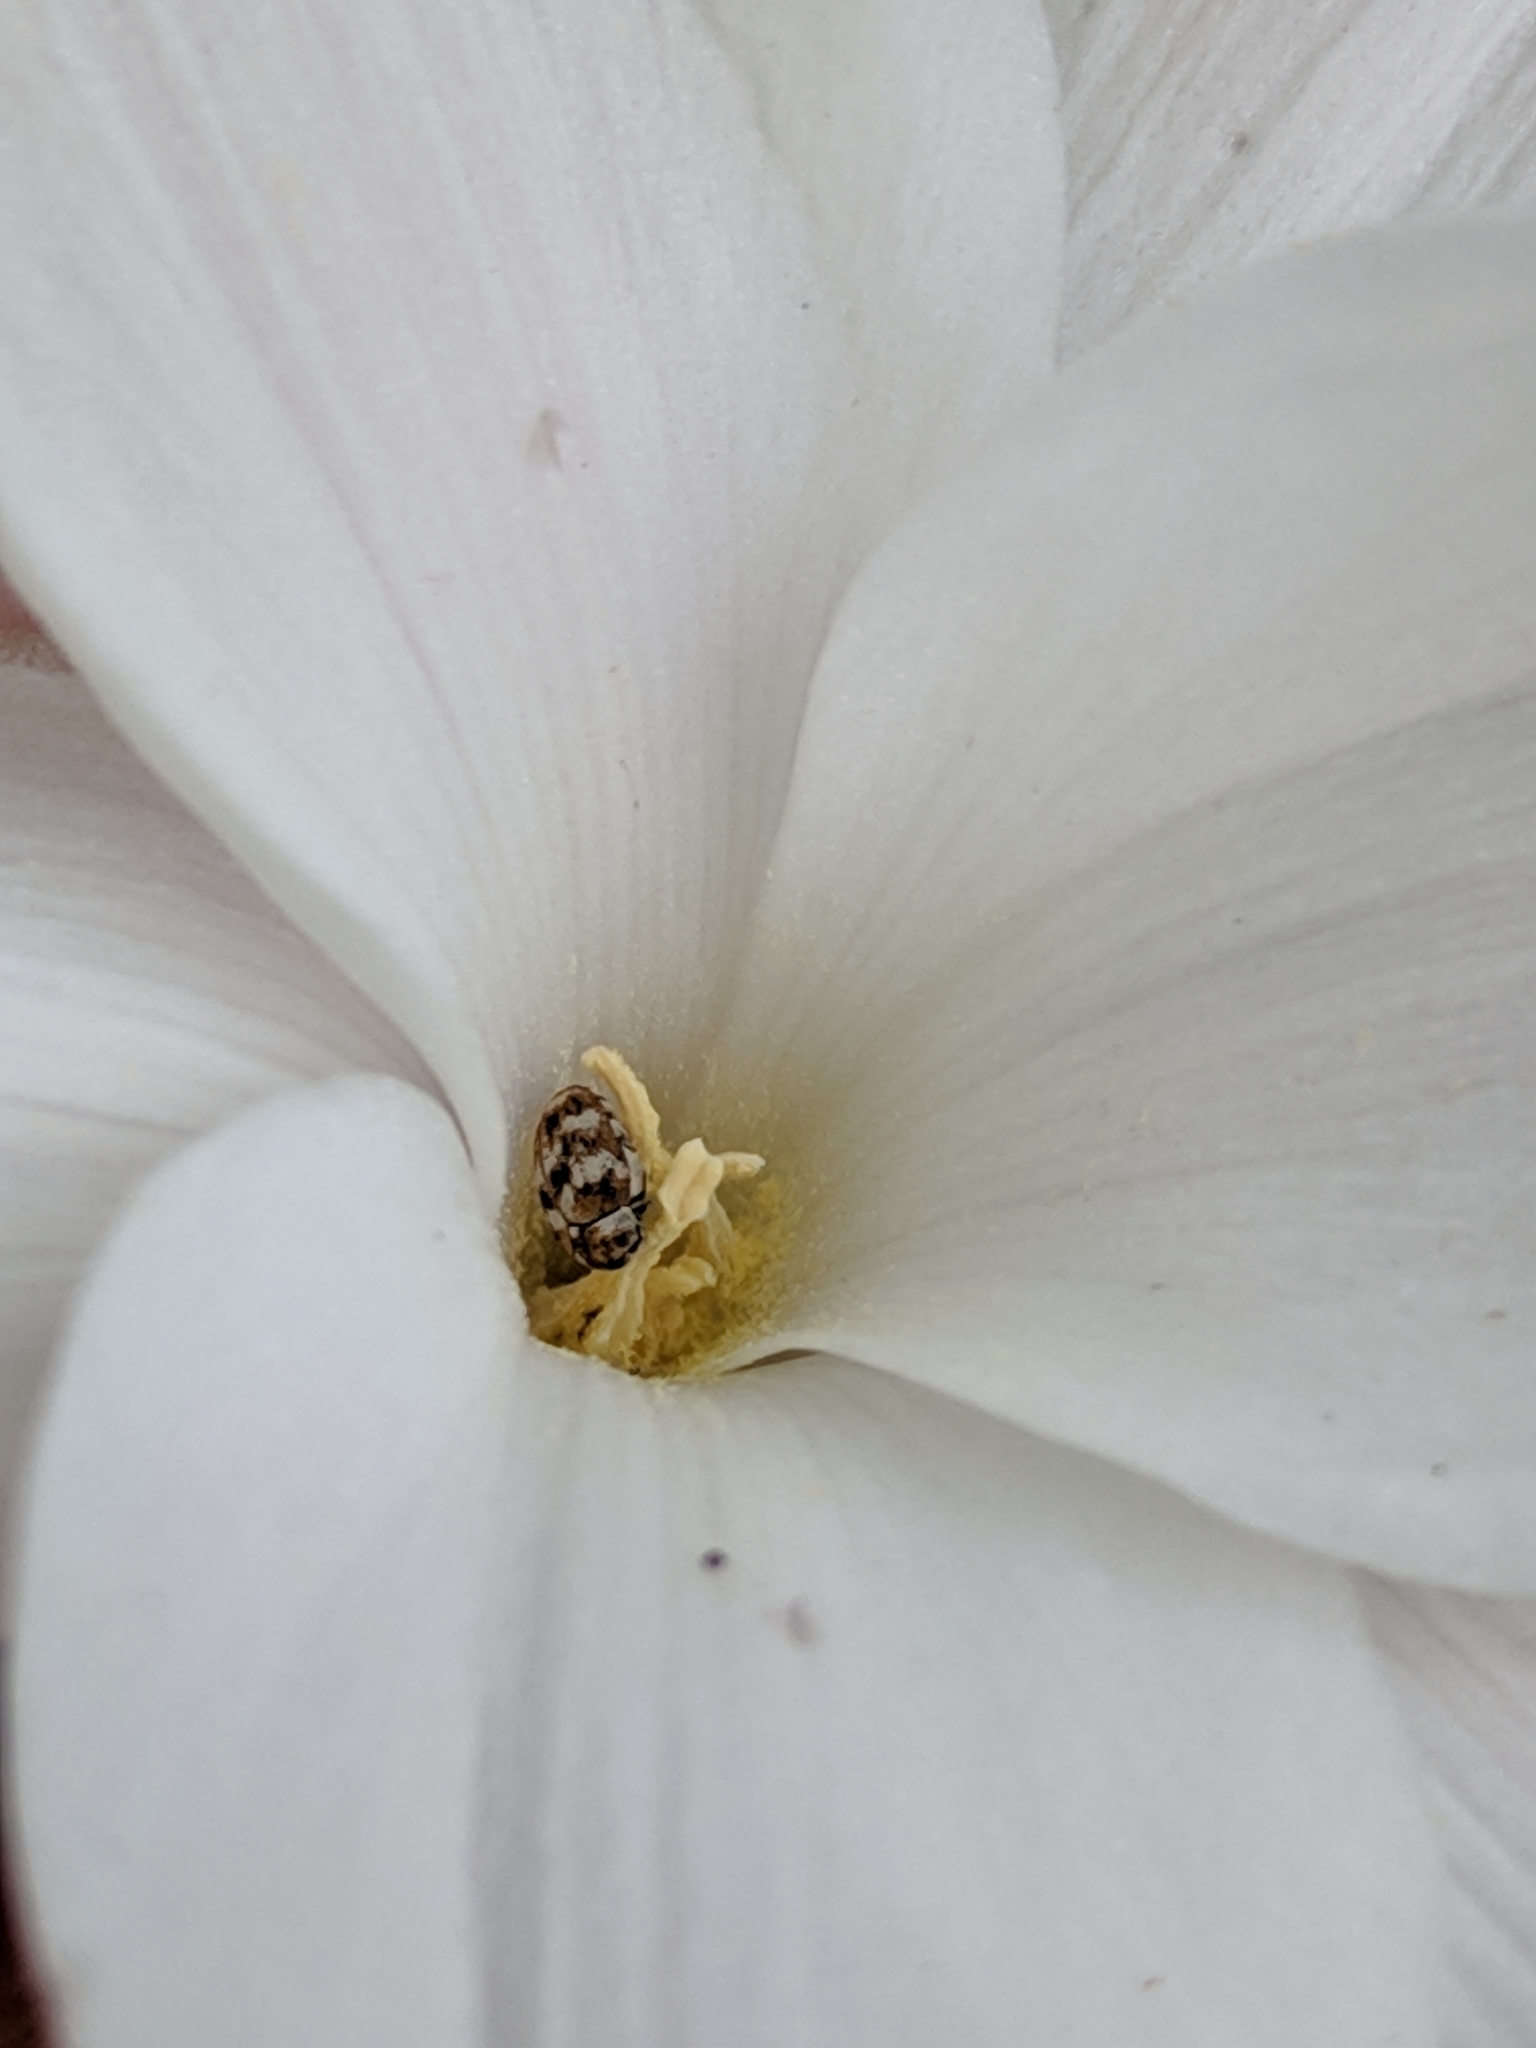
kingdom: Animalia
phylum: Arthropoda
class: Insecta
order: Coleoptera
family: Dermestidae
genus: Anthrenus
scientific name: Anthrenus verbasci
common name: Varied carpet beetle
